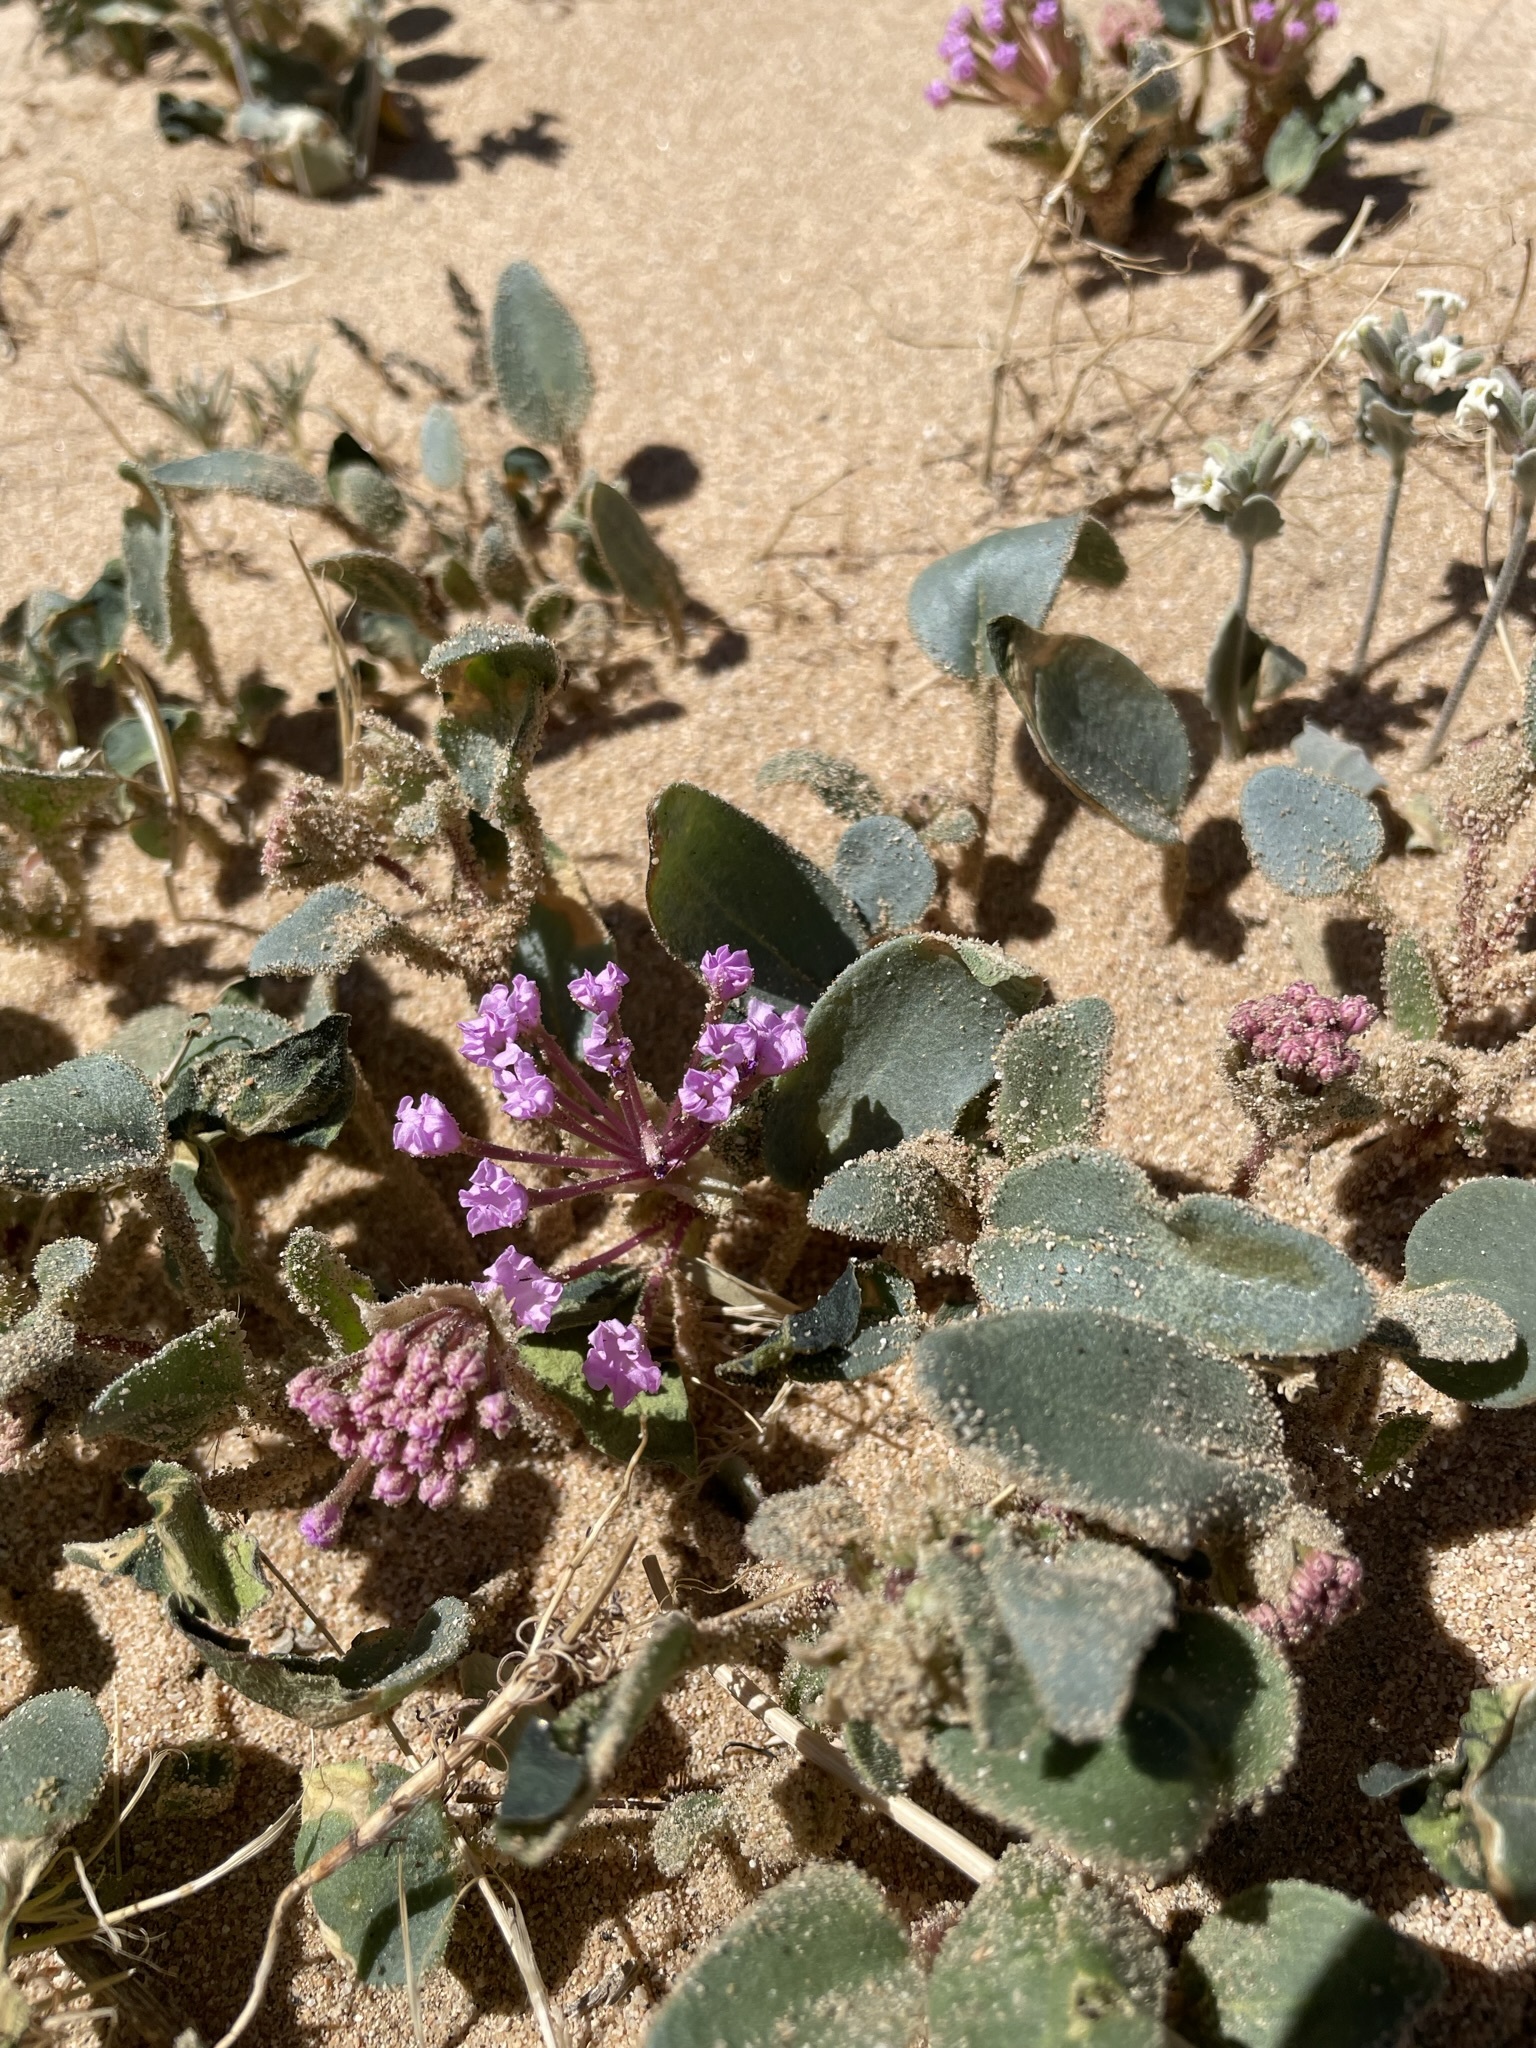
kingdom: Plantae
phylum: Tracheophyta
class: Magnoliopsida
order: Caryophyllales
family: Nyctaginaceae
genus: Abronia
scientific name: Abronia pogonantha
